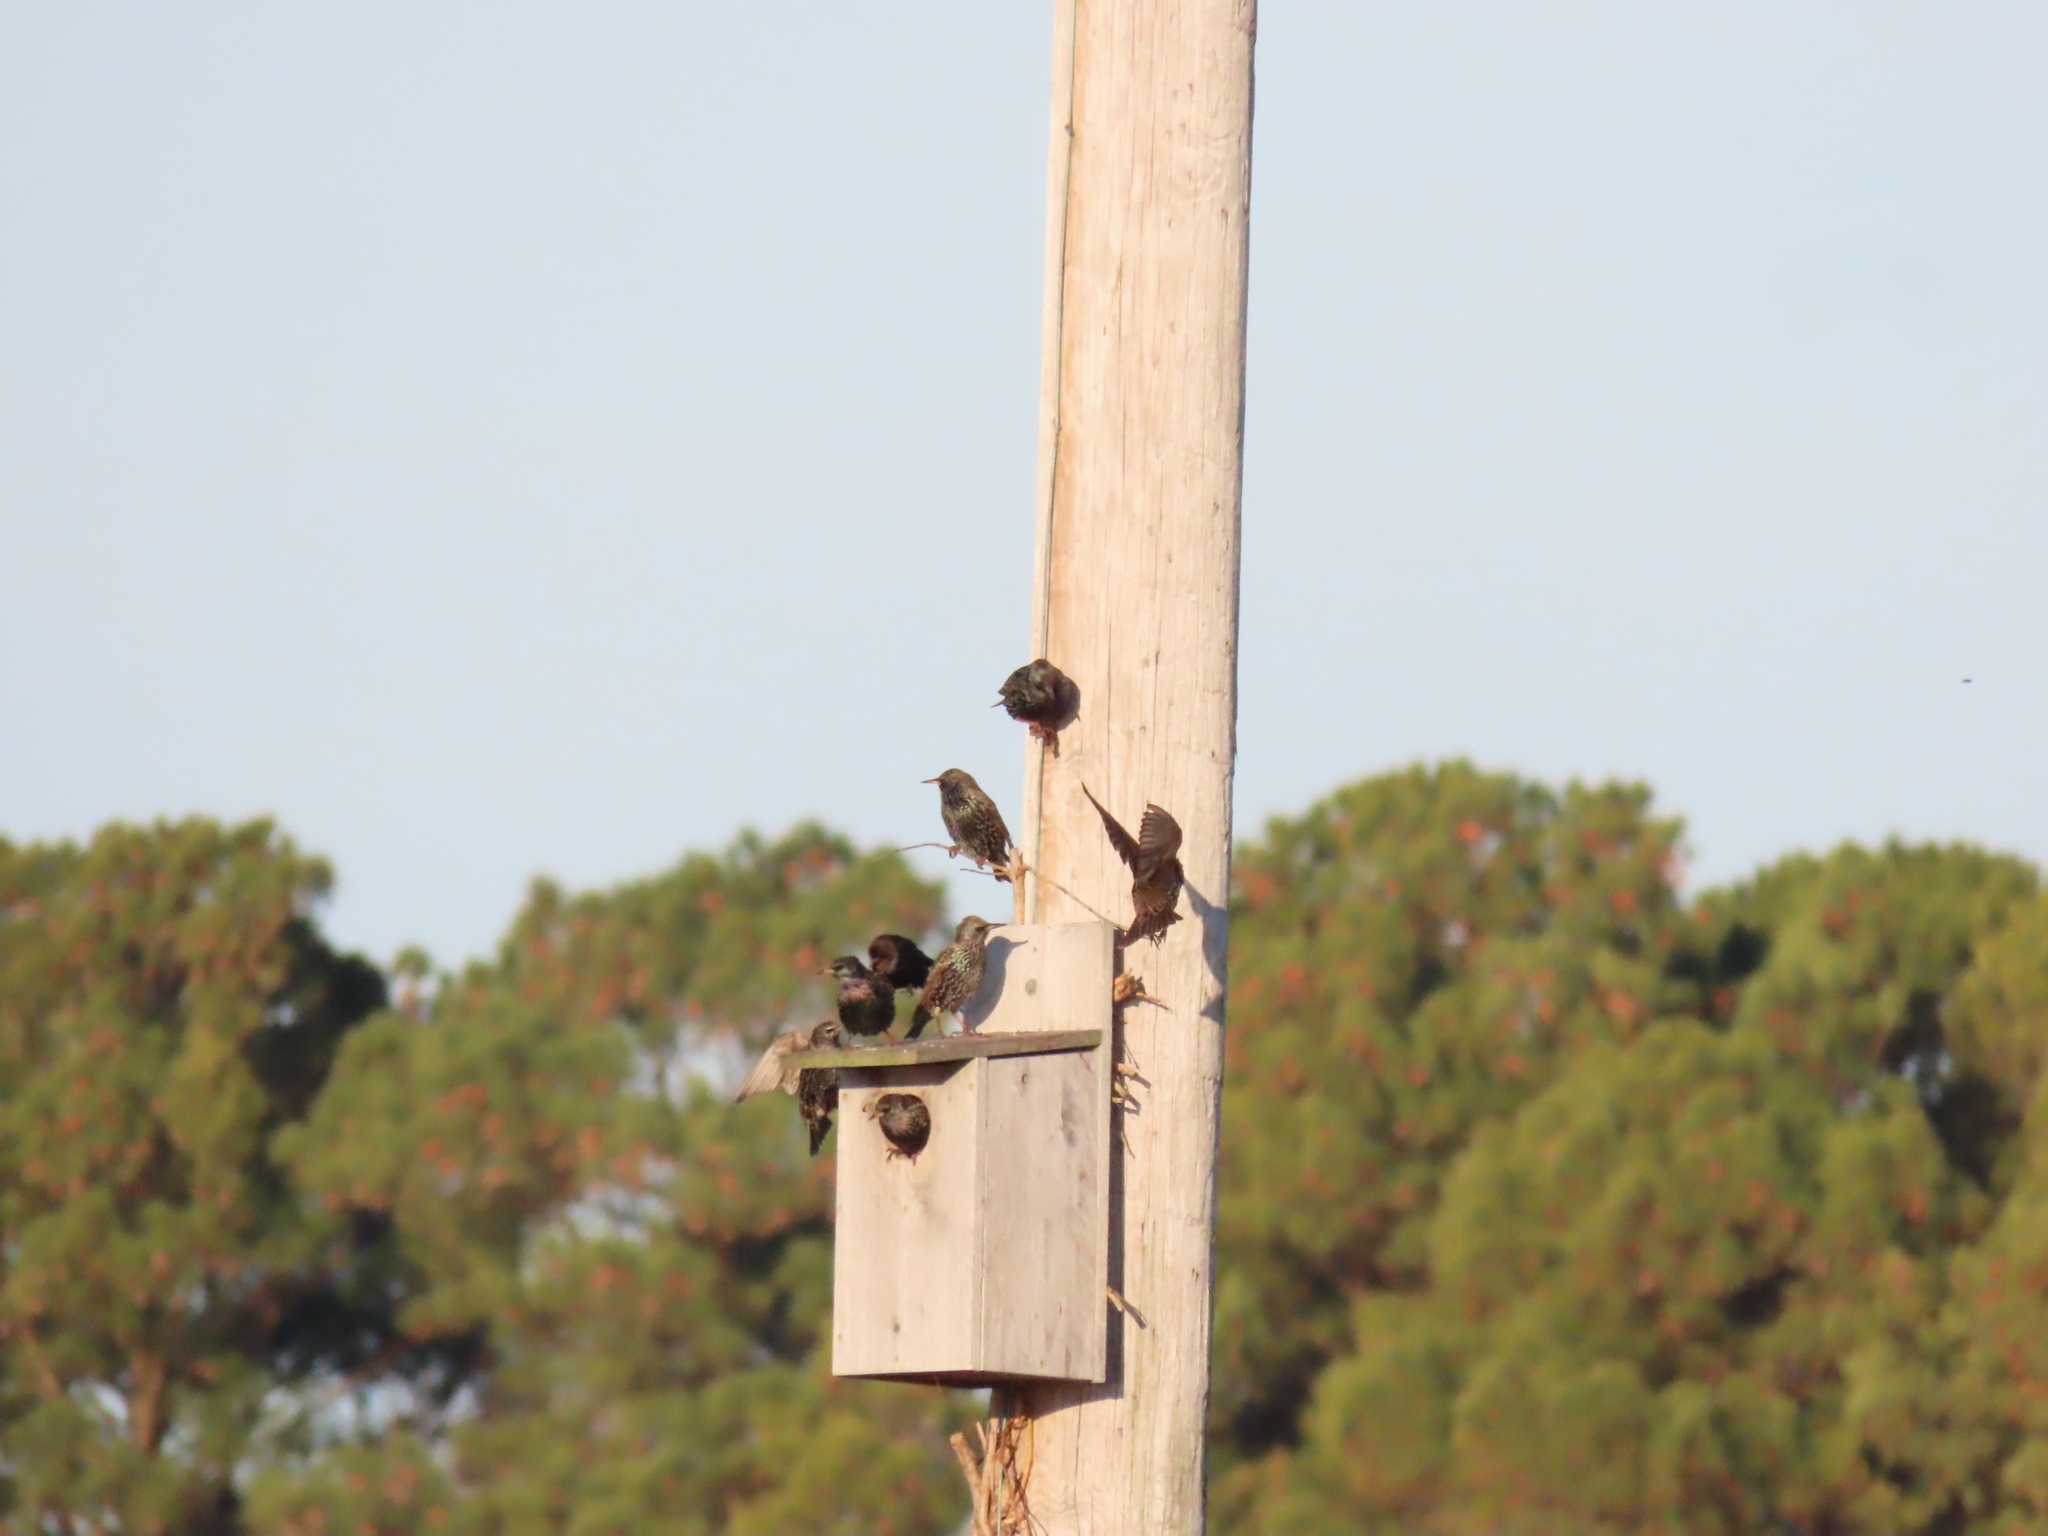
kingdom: Animalia
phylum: Chordata
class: Aves
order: Passeriformes
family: Sturnidae
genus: Sturnus
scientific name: Sturnus vulgaris
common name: Common starling
